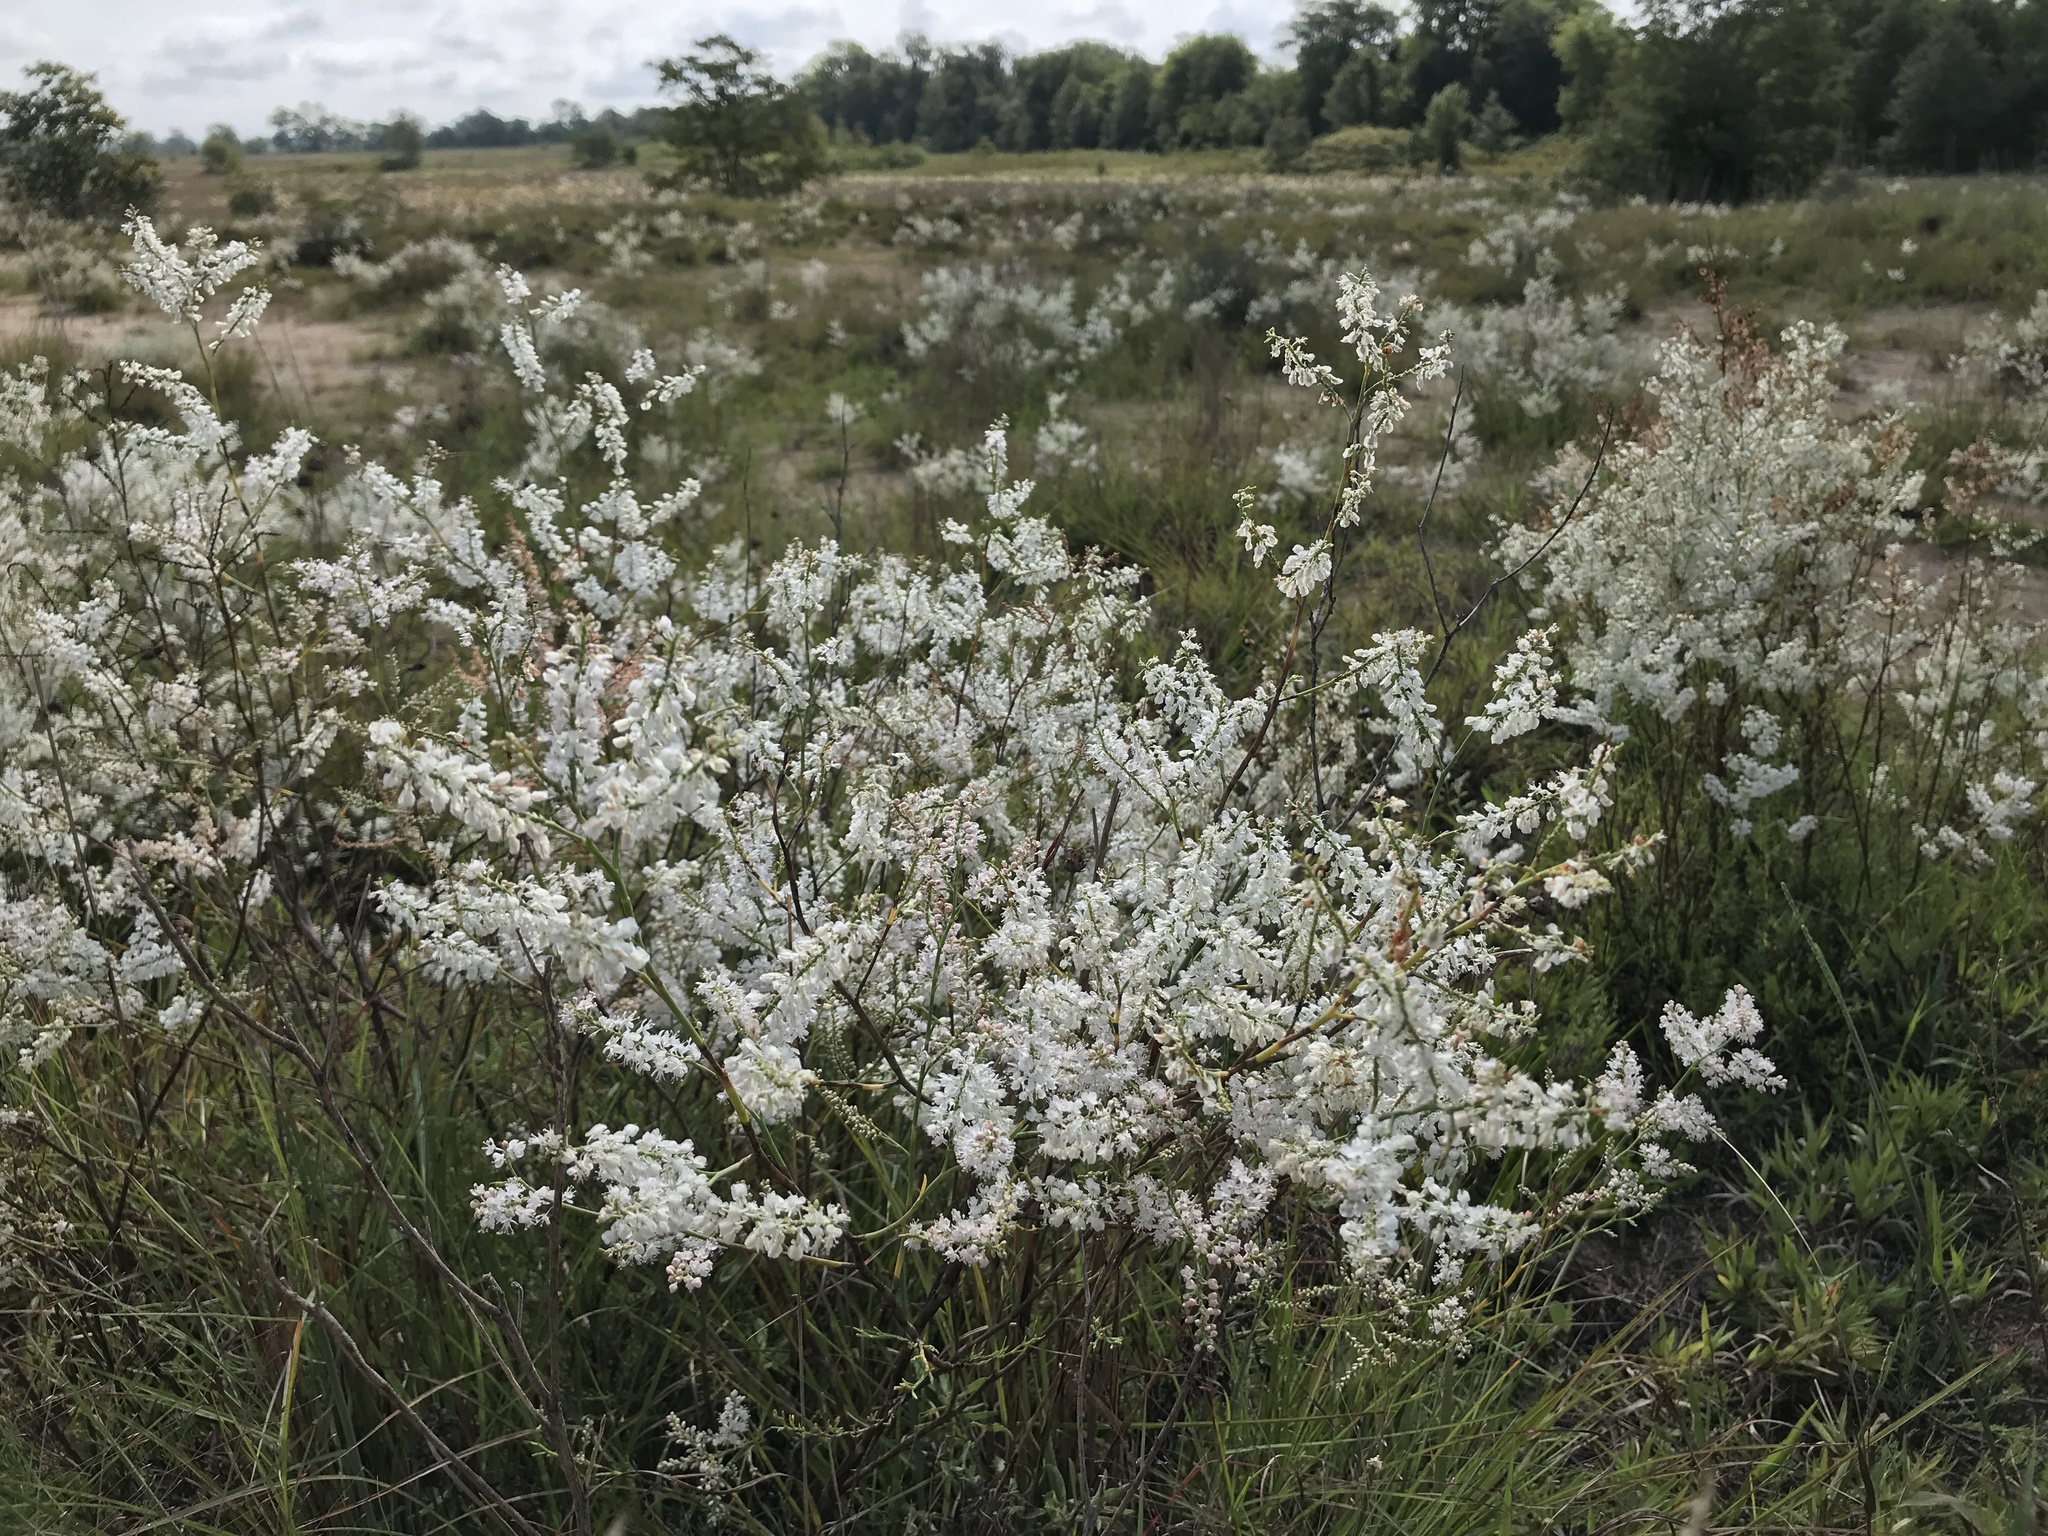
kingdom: Plantae
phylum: Tracheophyta
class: Magnoliopsida
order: Caryophyllales
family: Polygonaceae
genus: Polygonella
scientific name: Polygonella americana
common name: Southern jointweed
